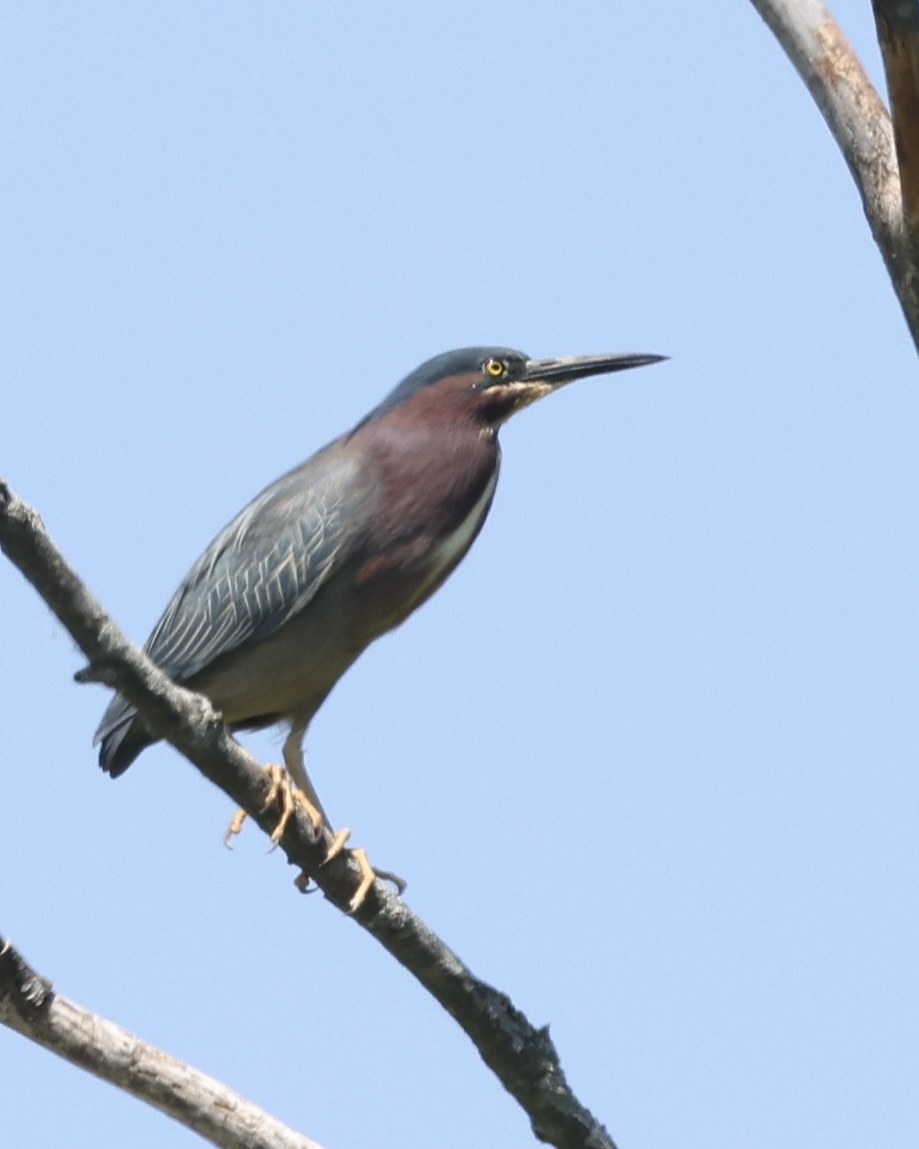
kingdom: Animalia
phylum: Chordata
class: Aves
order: Pelecaniformes
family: Ardeidae
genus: Butorides
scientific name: Butorides virescens
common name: Green heron
